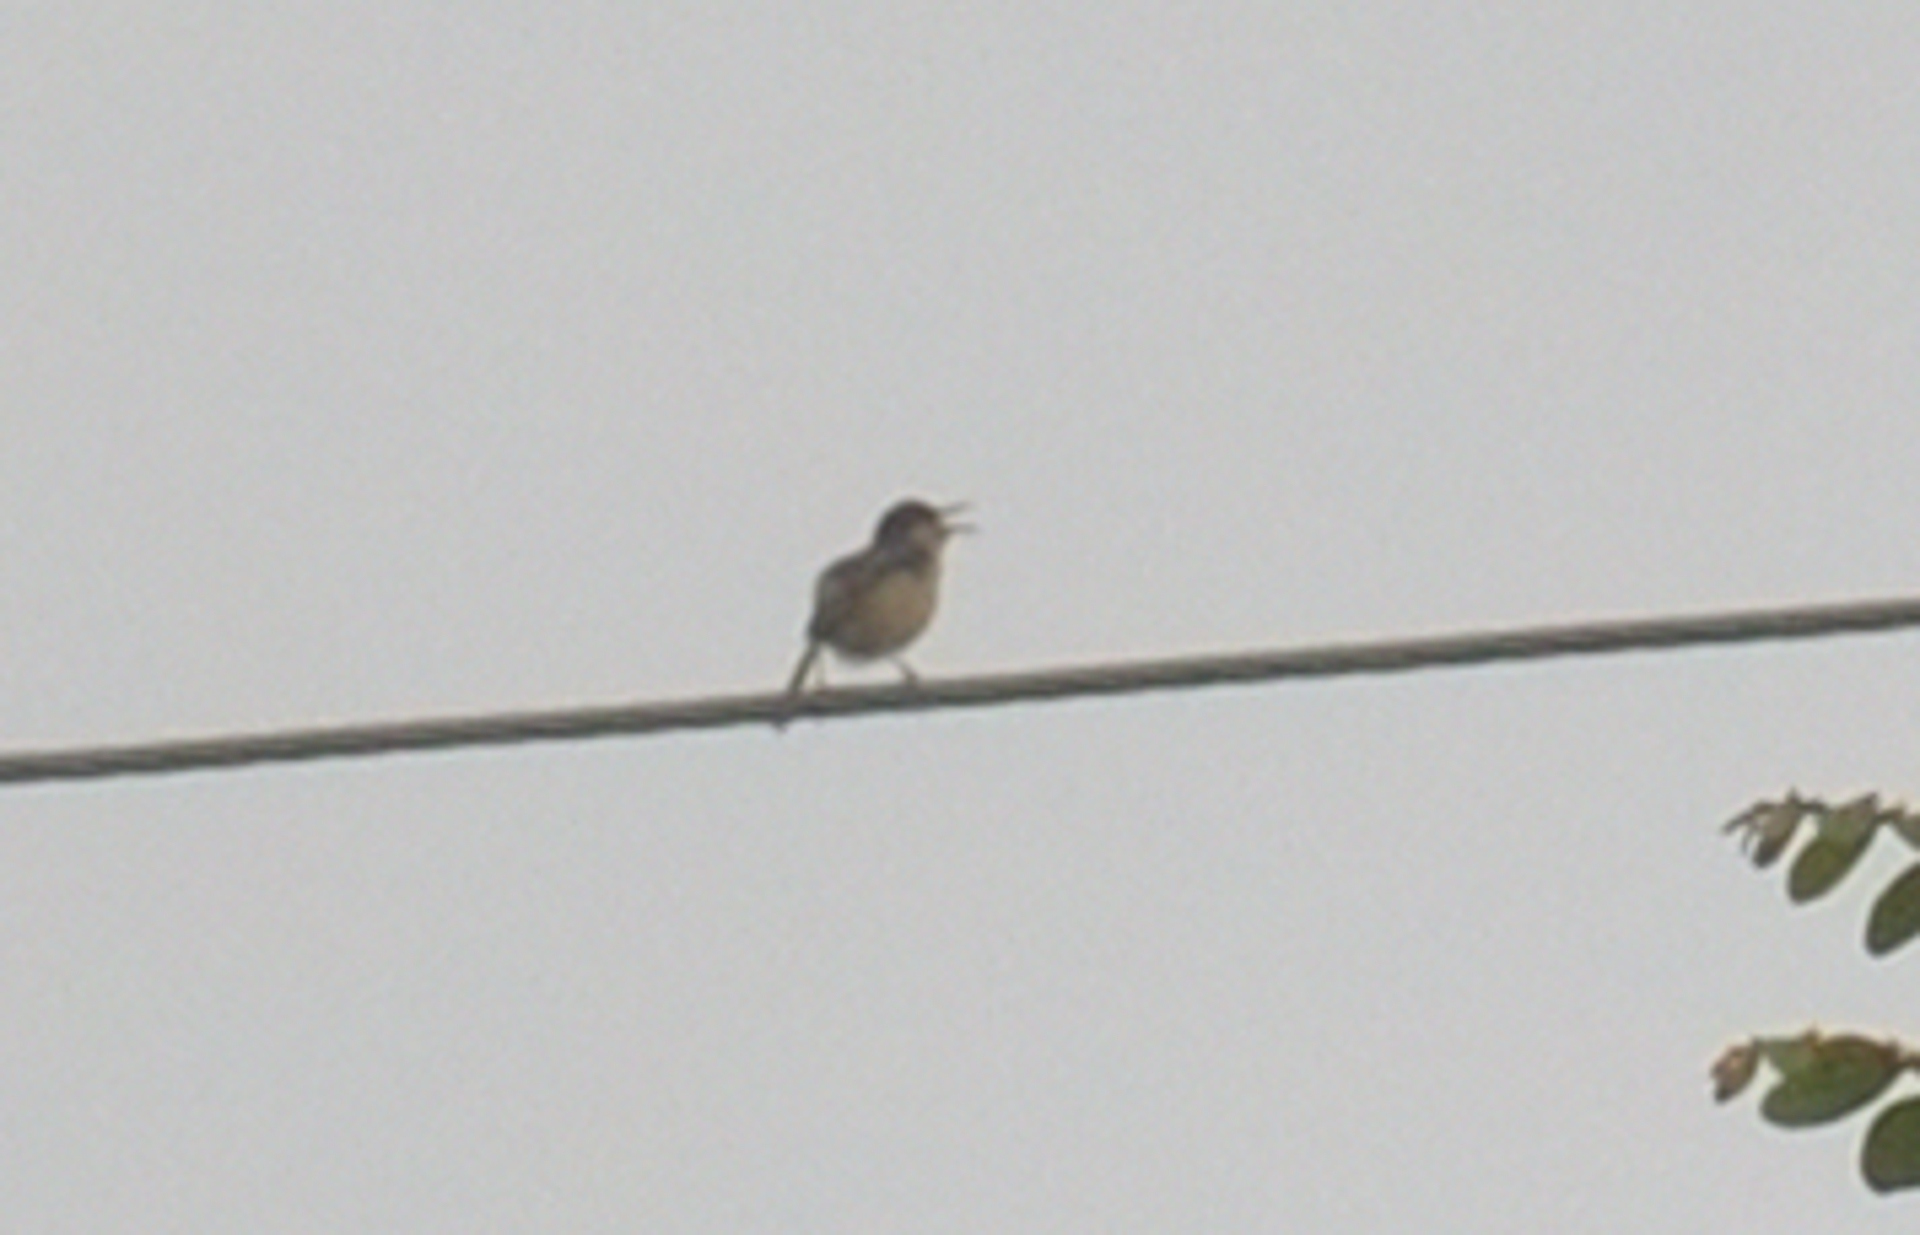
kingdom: Animalia
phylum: Chordata
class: Aves
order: Passeriformes
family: Cisticolidae
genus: Prinia
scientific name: Prinia socialis
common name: Ashy prinia
